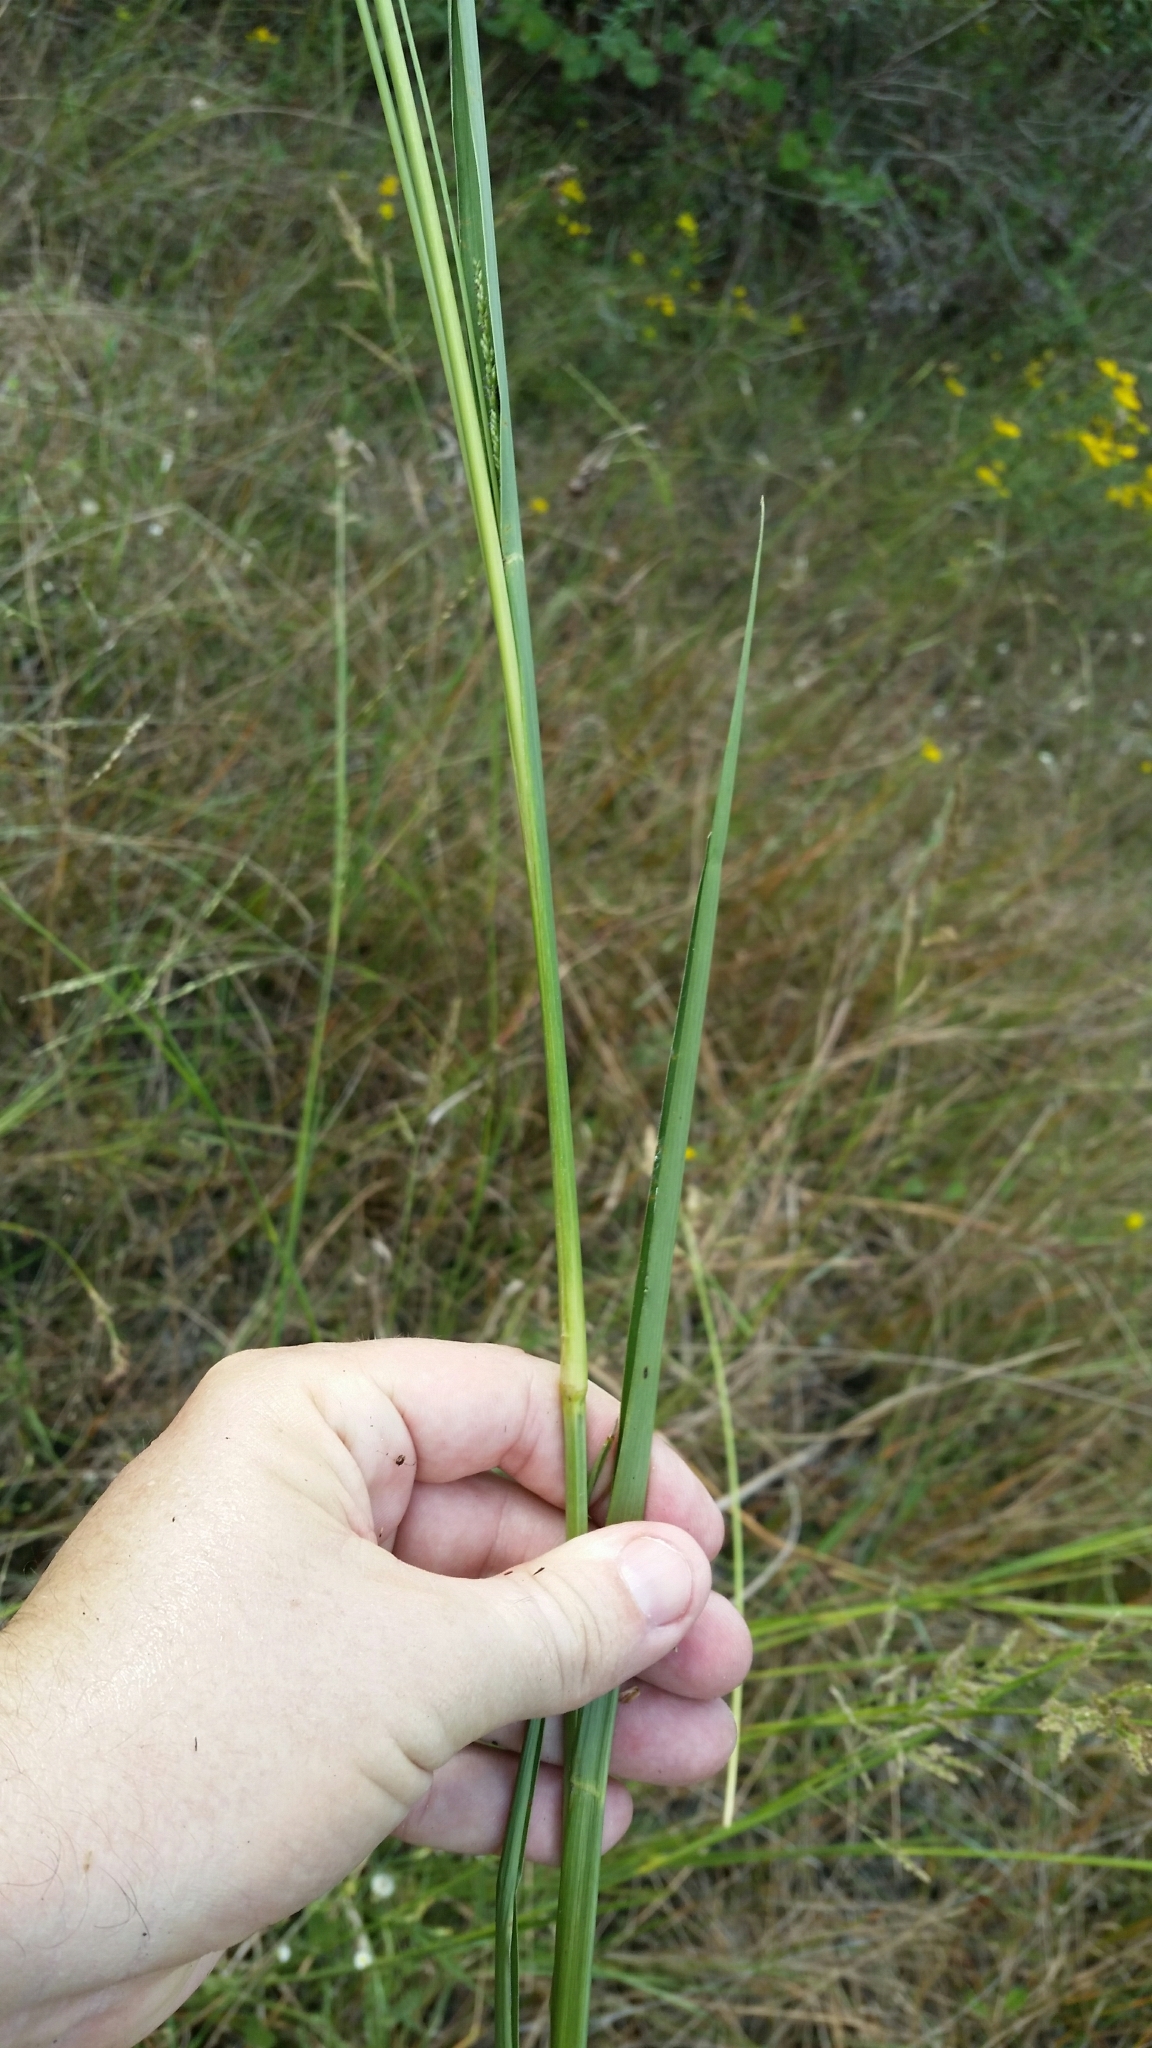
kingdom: Plantae
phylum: Tracheophyta
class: Liliopsida
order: Poales
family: Poaceae
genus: Coleataenia
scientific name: Coleataenia rigidula
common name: Redtop panicgrass
